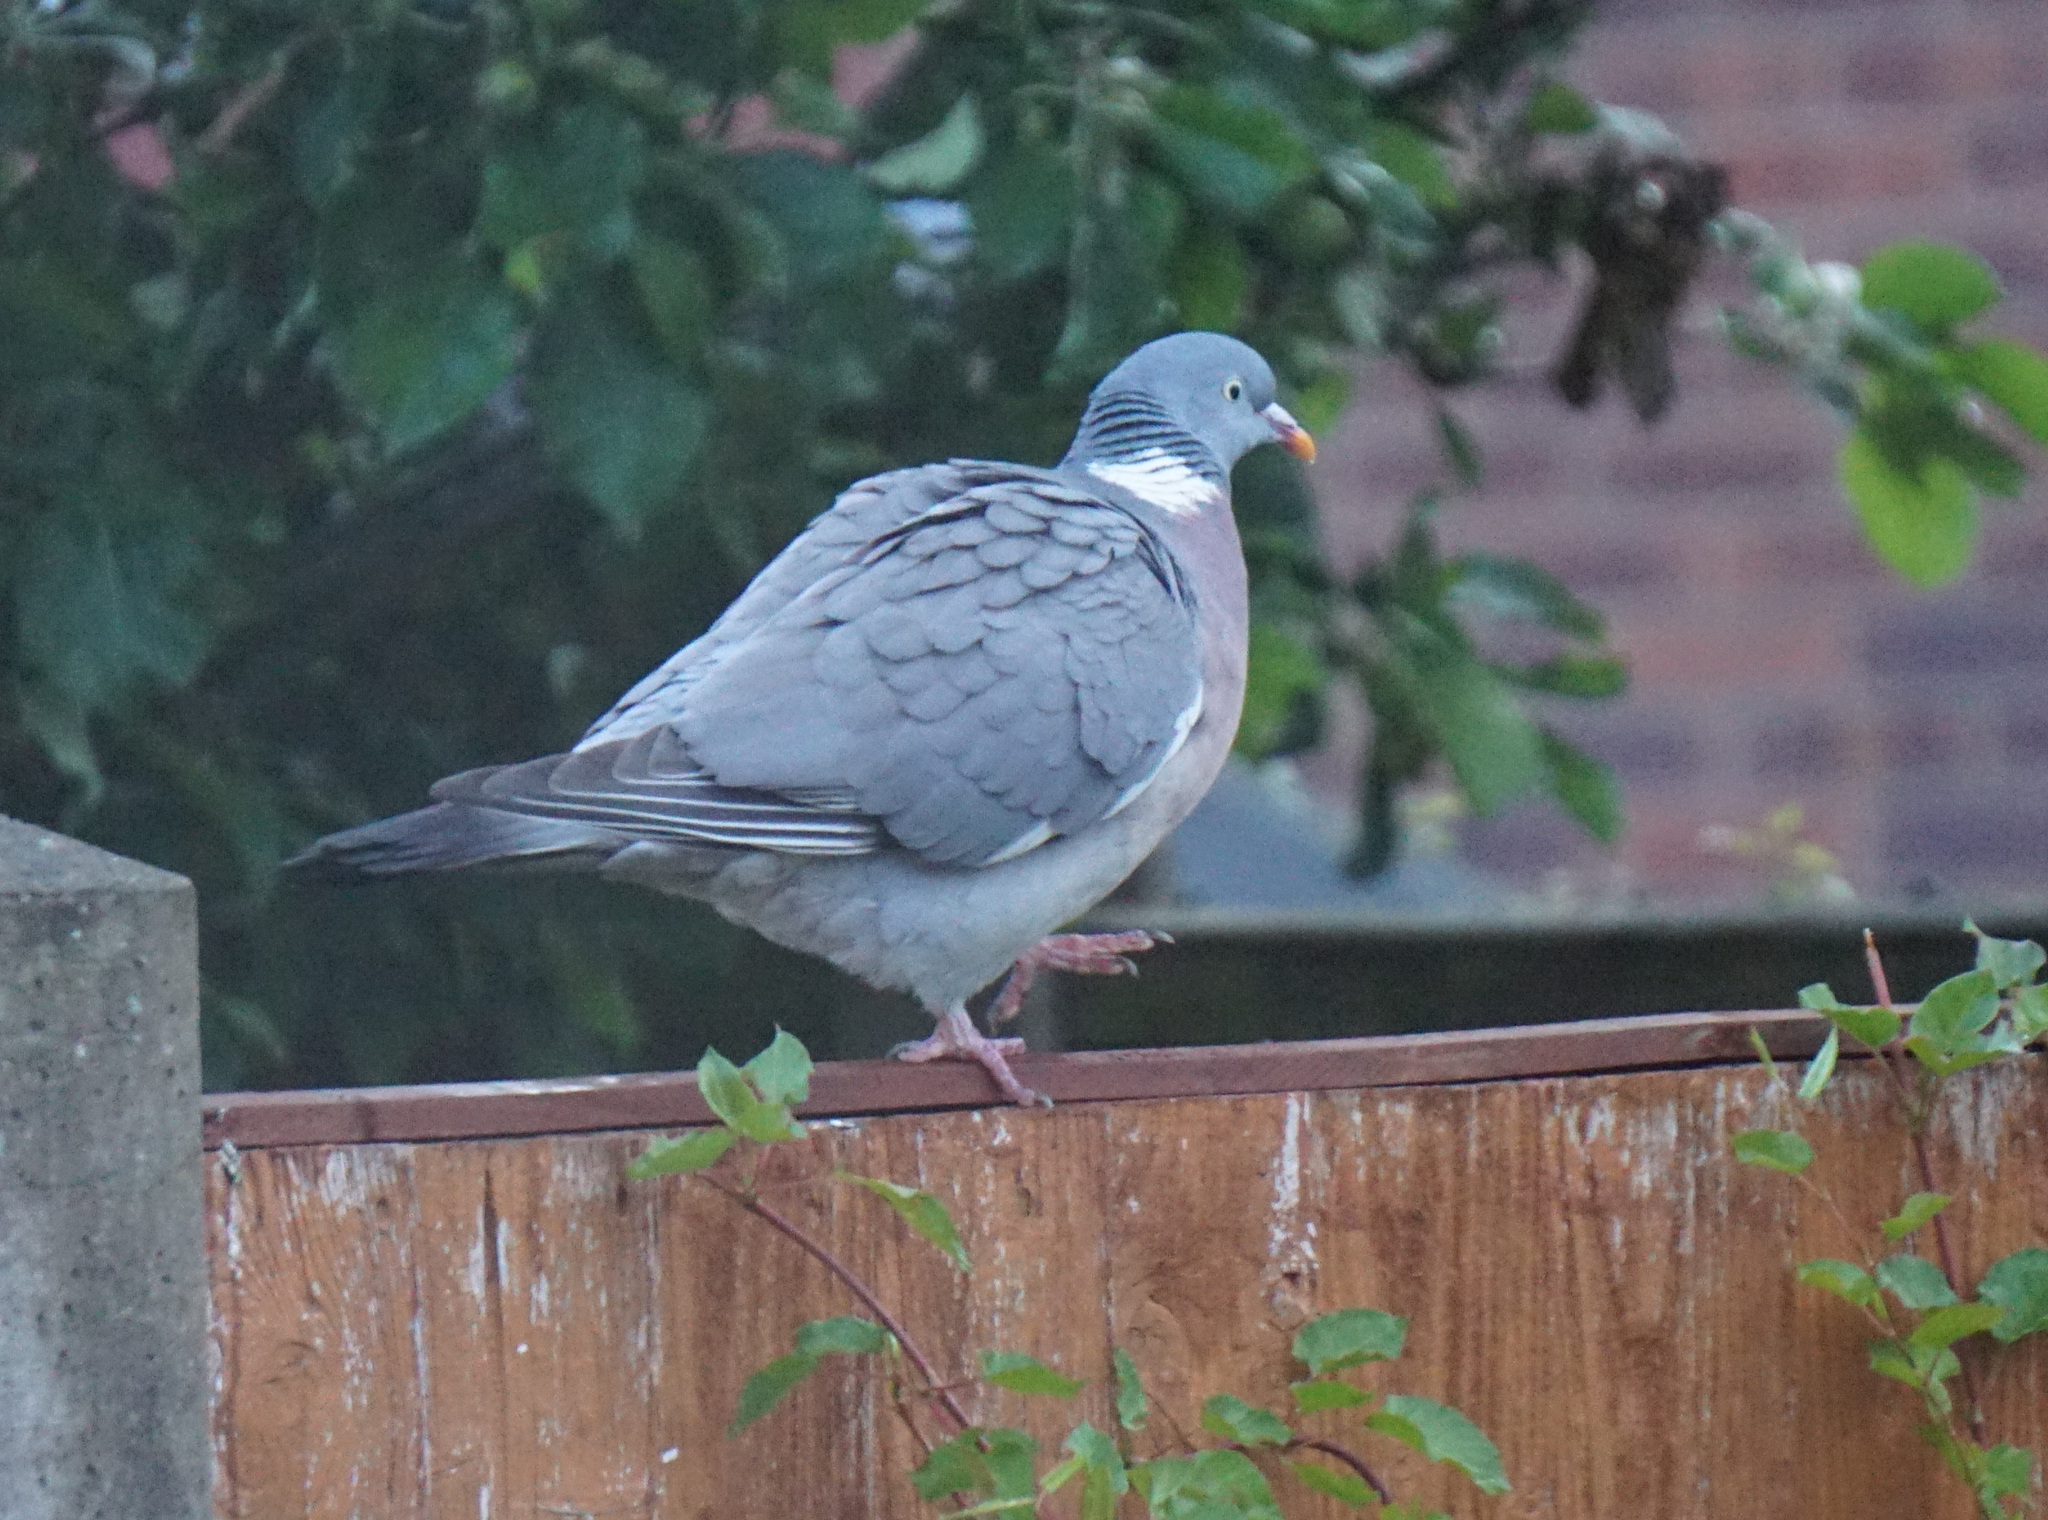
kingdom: Animalia
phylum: Chordata
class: Aves
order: Columbiformes
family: Columbidae
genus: Columba
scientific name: Columba palumbus
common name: Common wood pigeon
